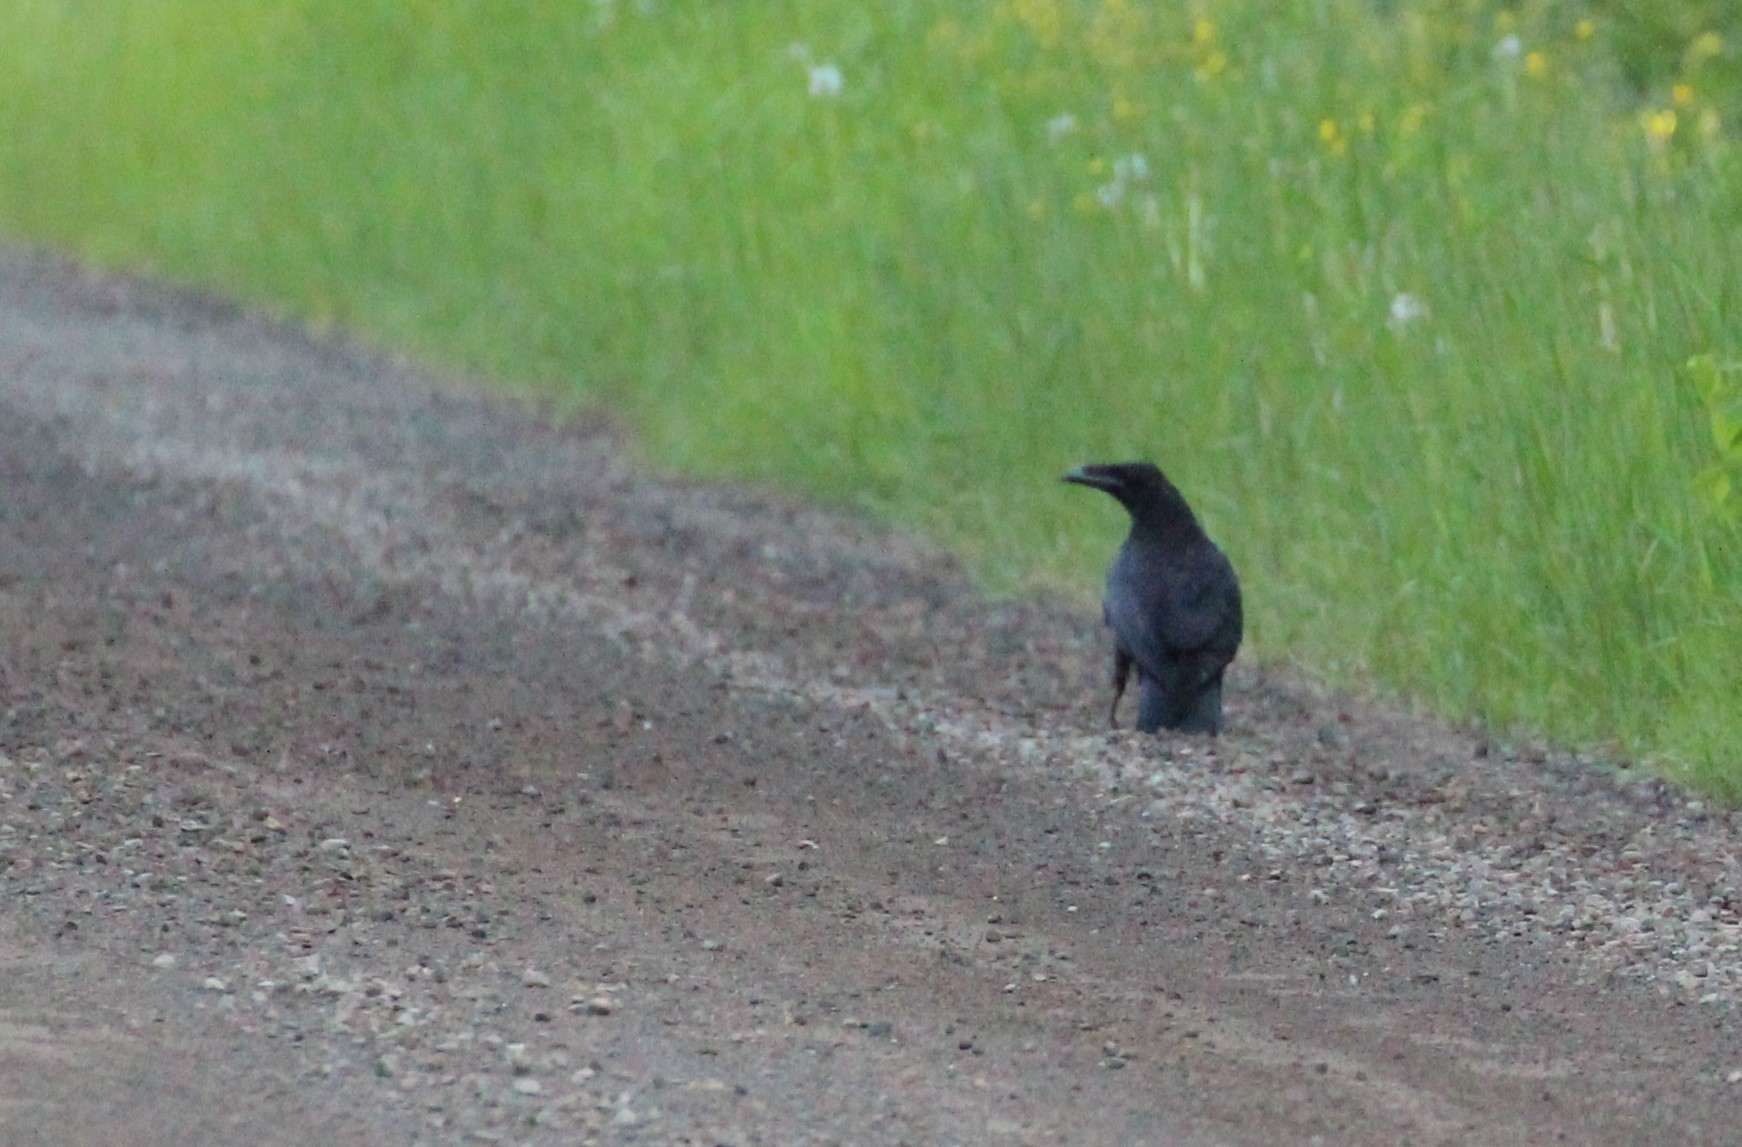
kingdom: Animalia
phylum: Chordata
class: Aves
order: Passeriformes
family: Corvidae
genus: Corvus
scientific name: Corvus corax
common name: Common raven
